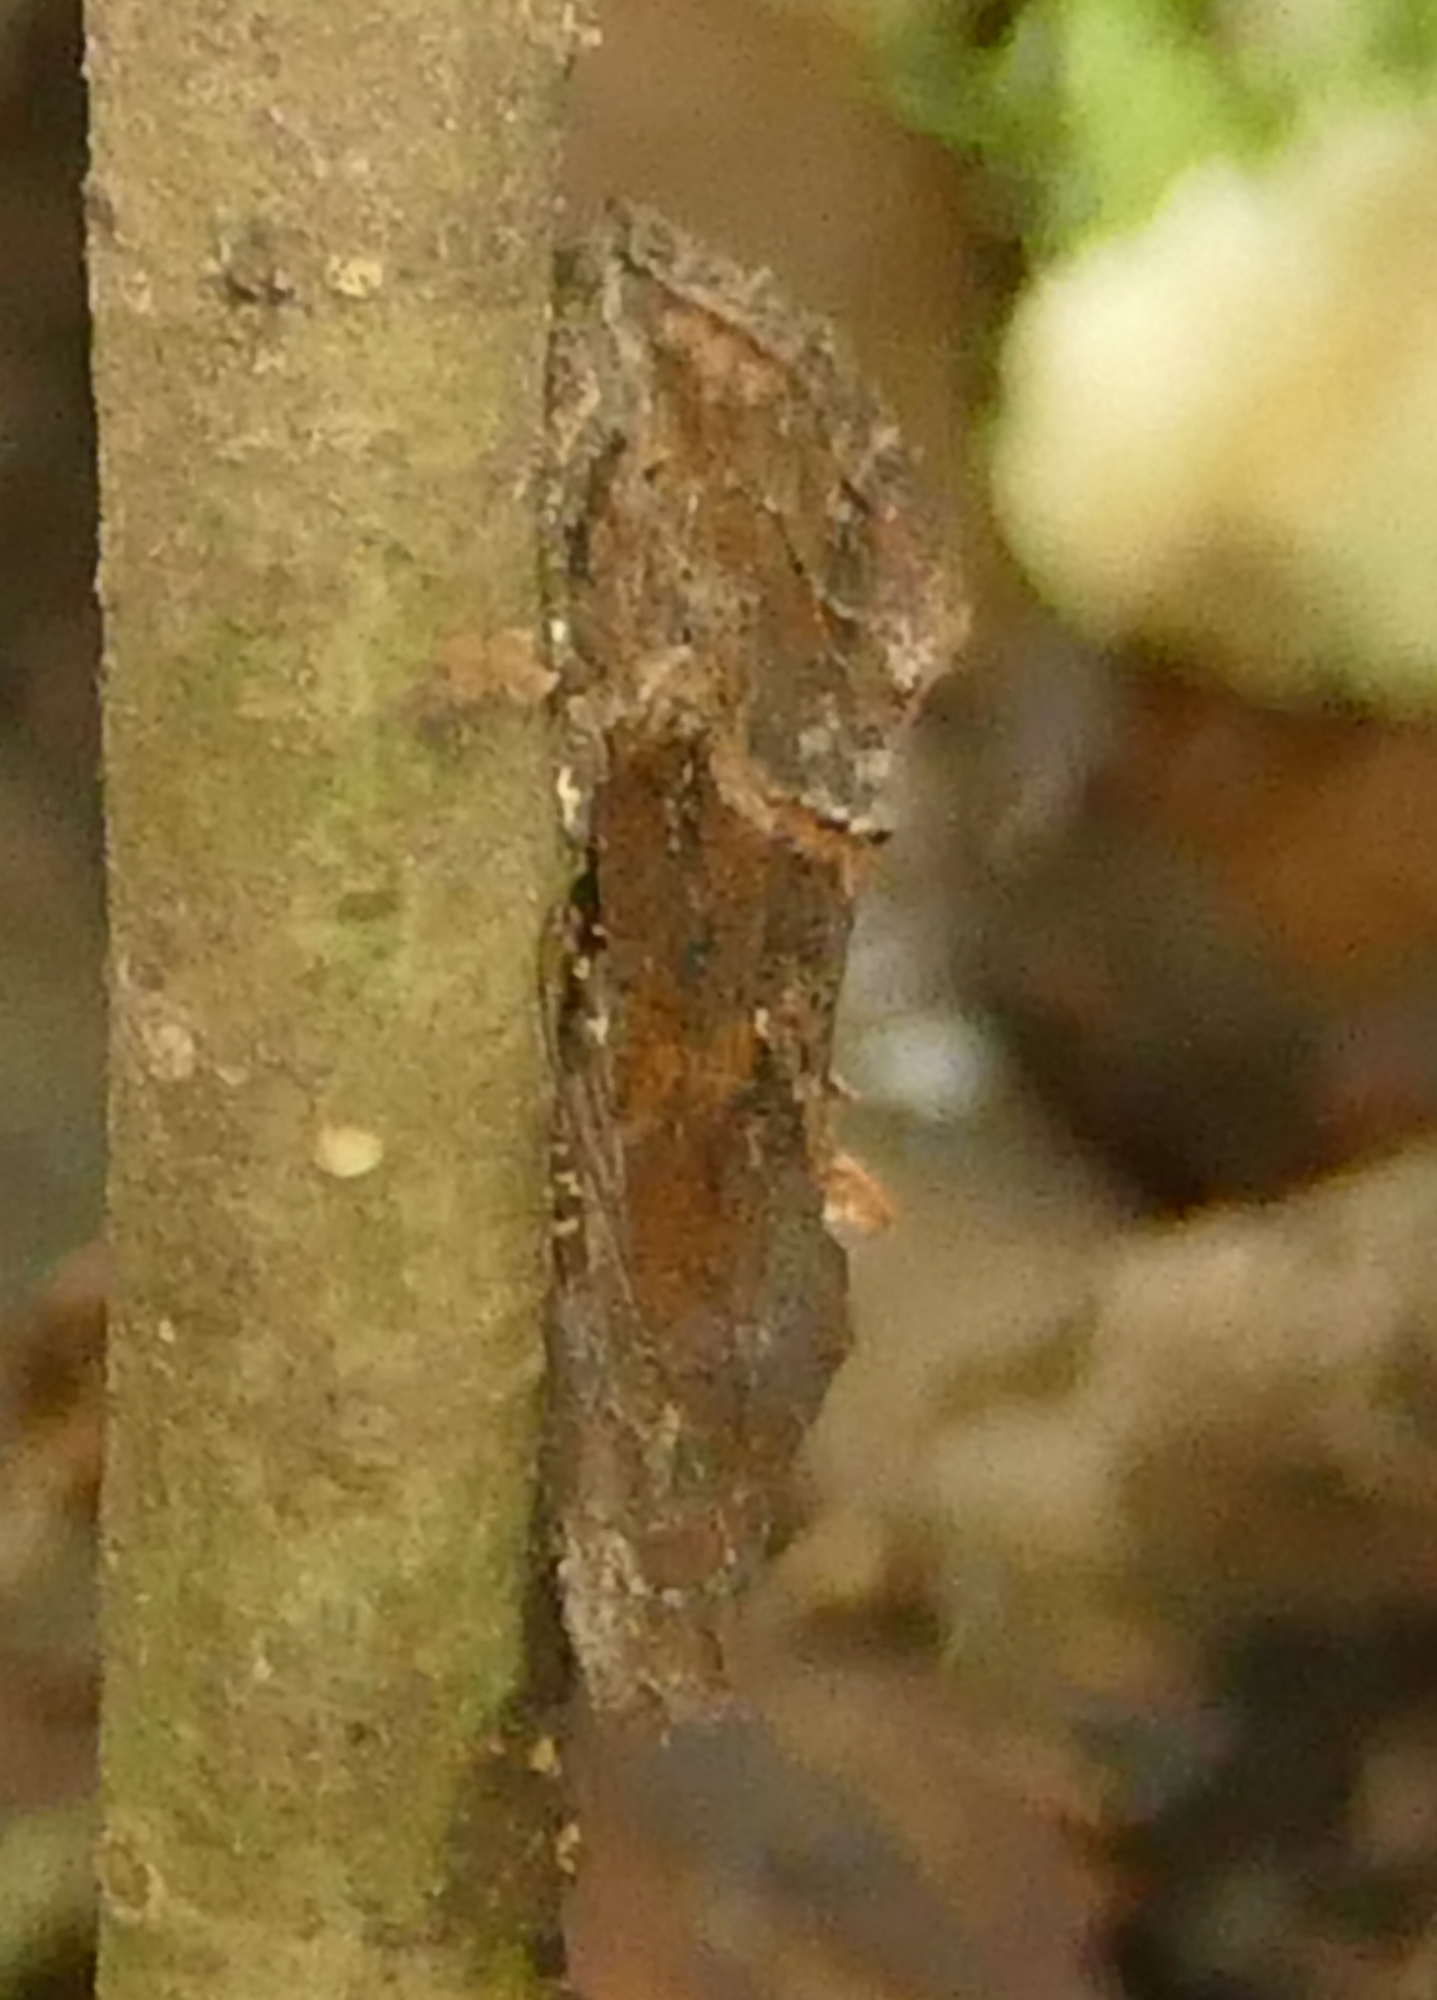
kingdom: Animalia
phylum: Arthropoda
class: Insecta
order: Lepidoptera
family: Erebidae
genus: Hypena
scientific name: Hypena scabra
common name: Green cloverworm
